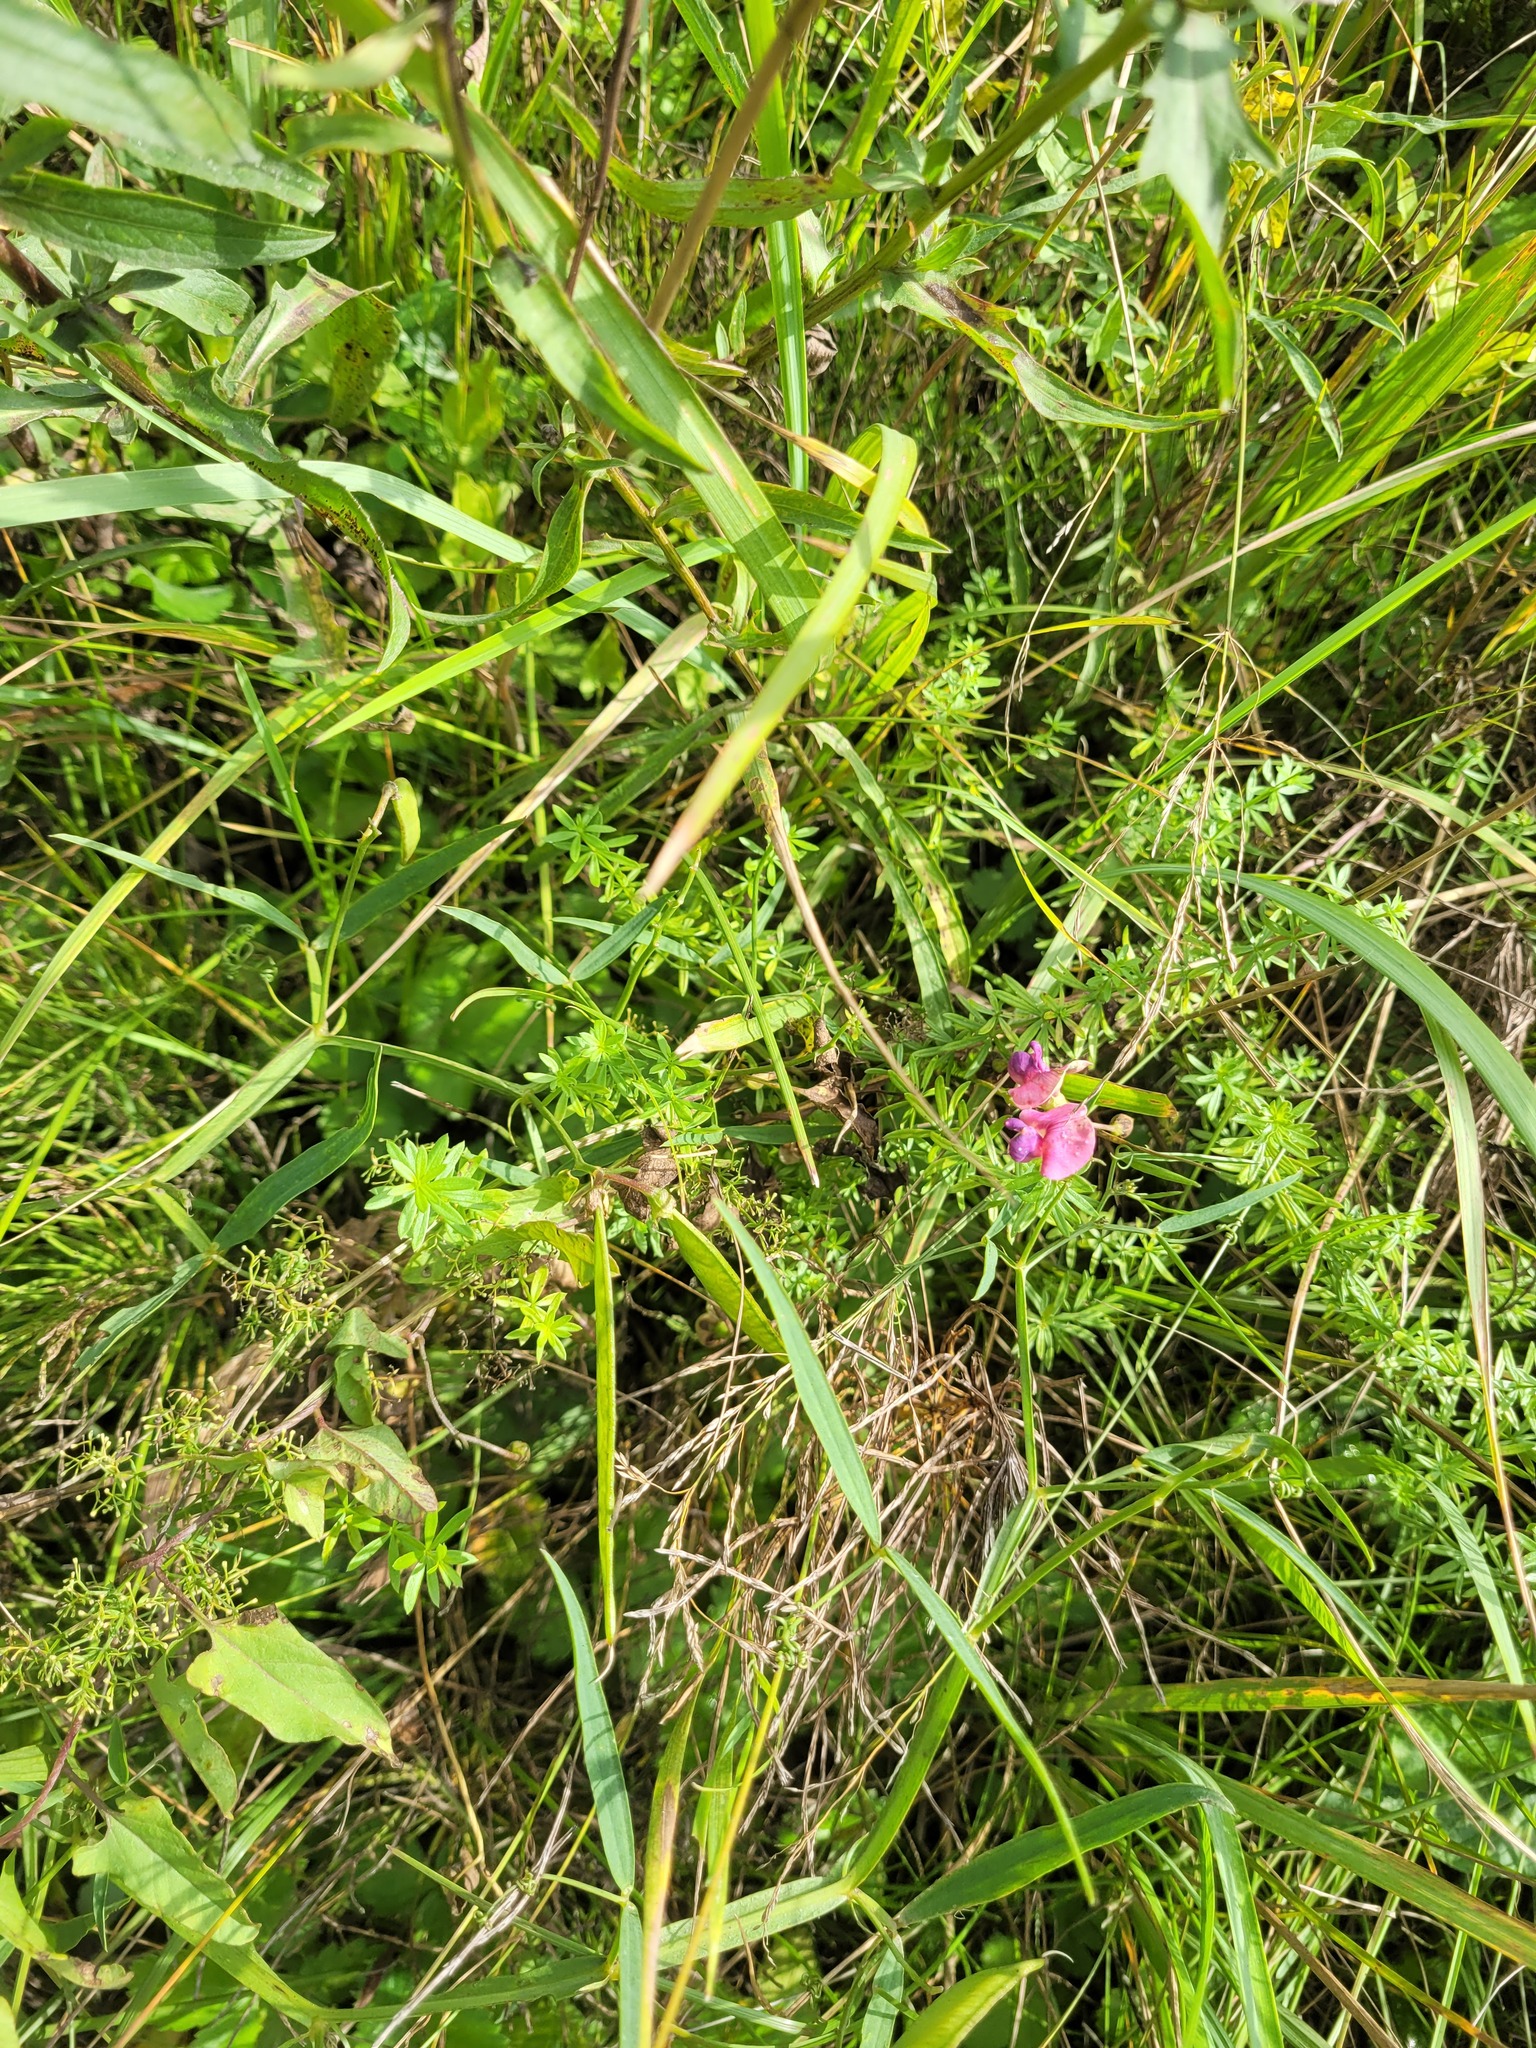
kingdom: Plantae
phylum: Tracheophyta
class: Magnoliopsida
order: Fabales
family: Fabaceae
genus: Lathyrus
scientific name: Lathyrus sylvestris
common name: Flat pea
